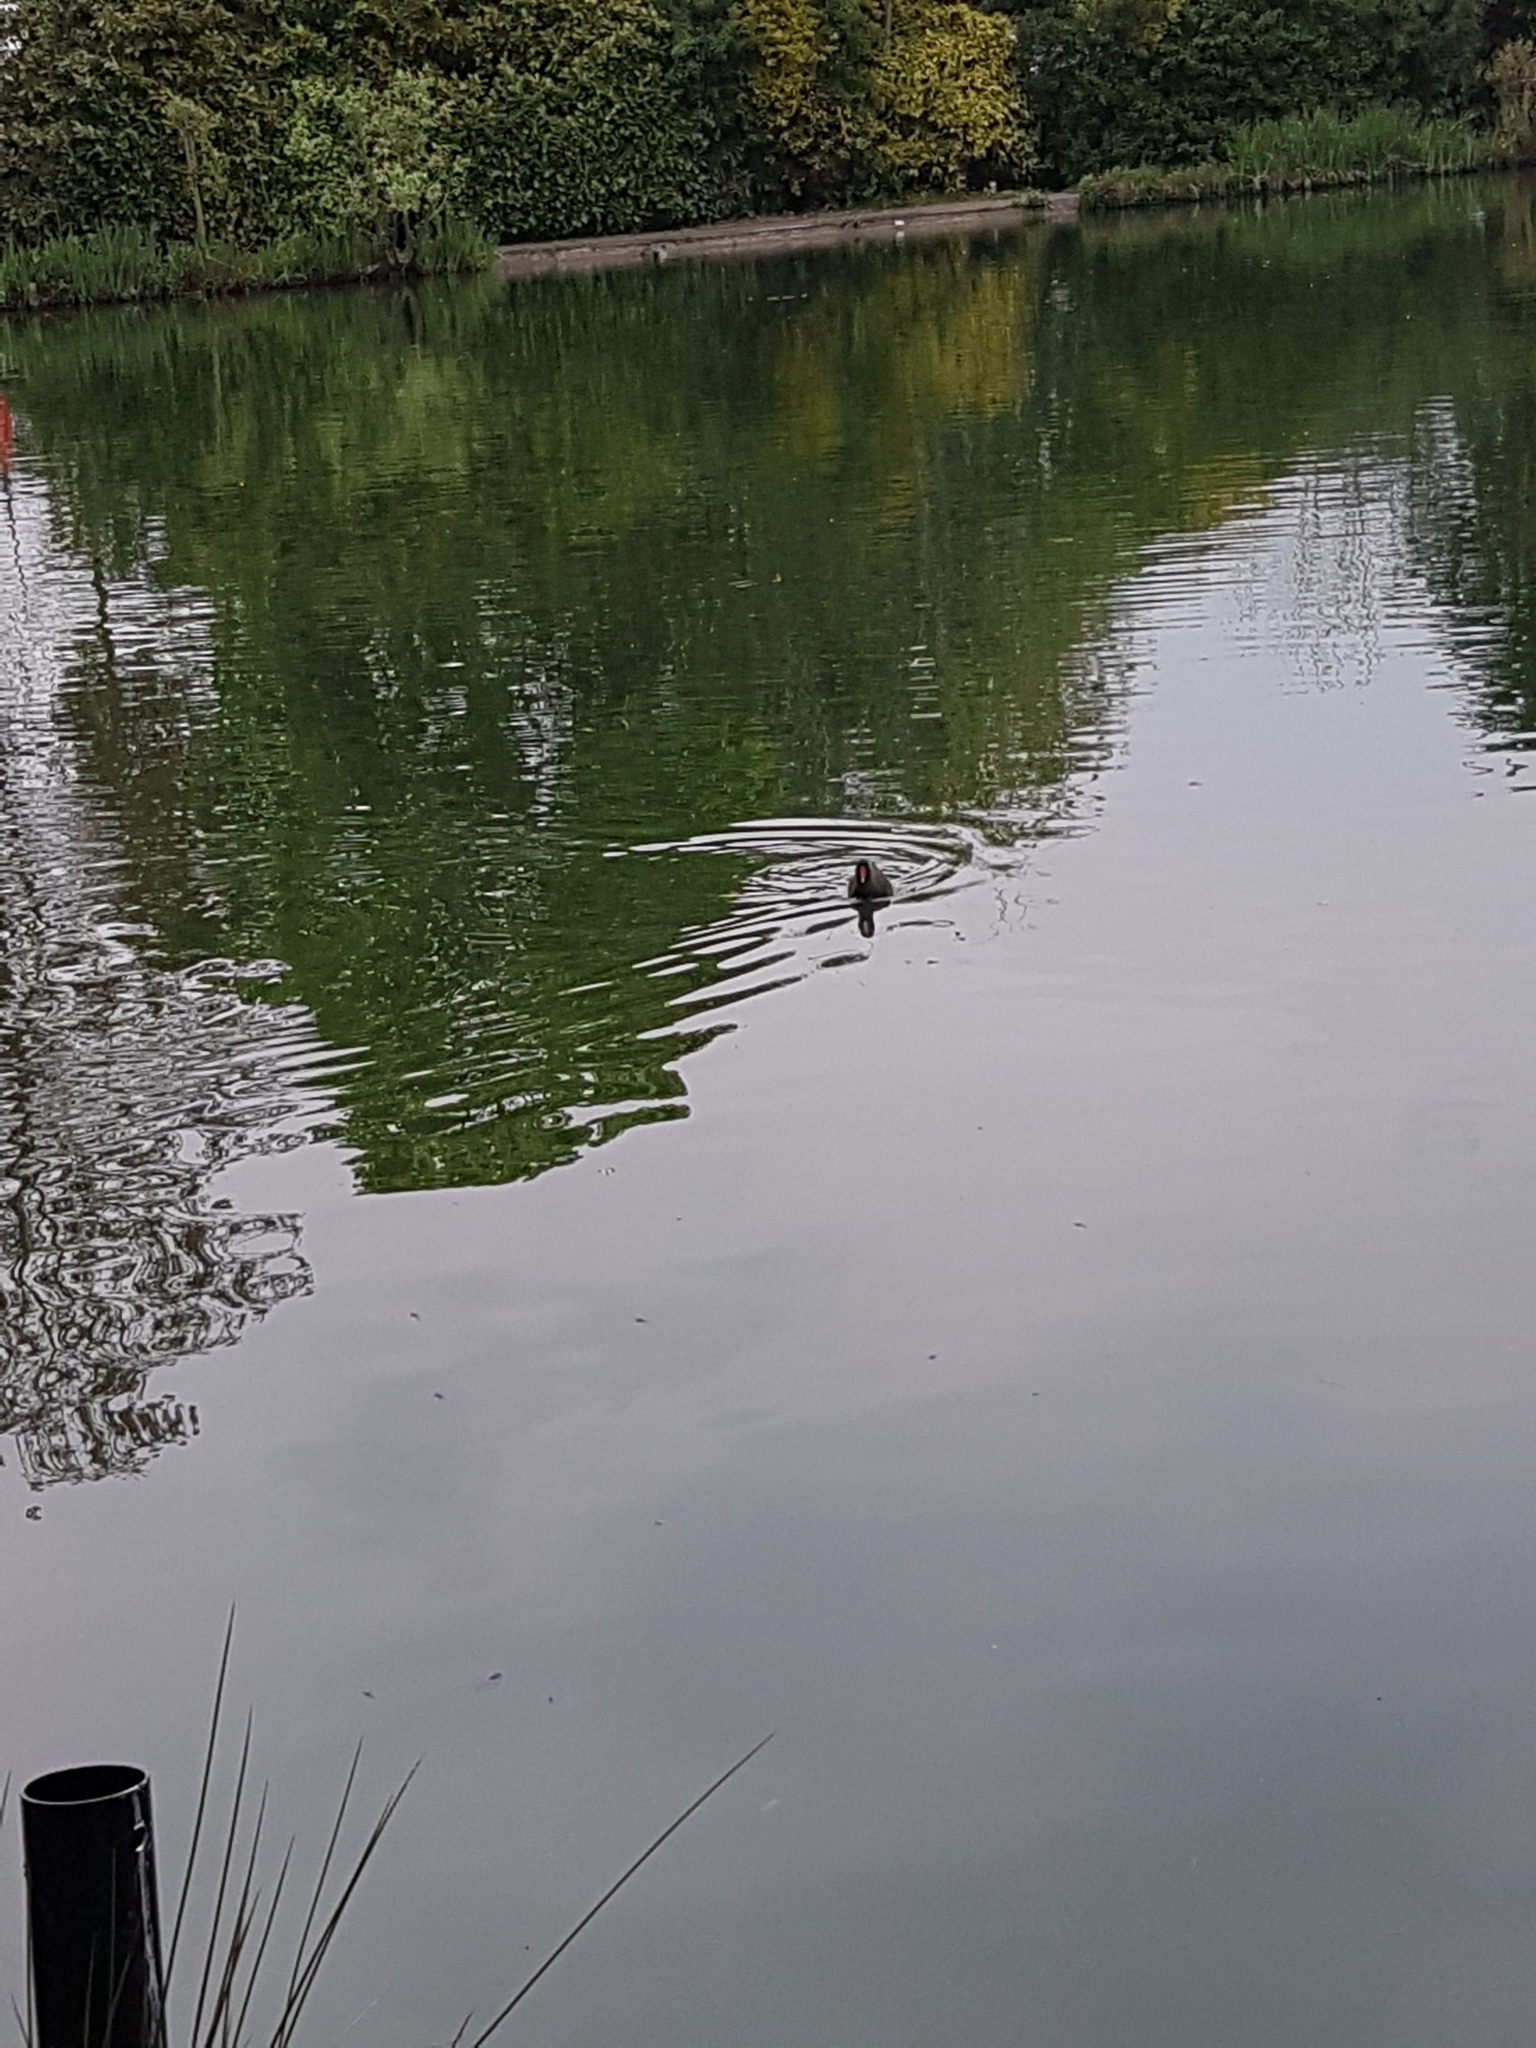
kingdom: Animalia
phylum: Chordata
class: Aves
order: Gruiformes
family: Rallidae
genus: Gallinula
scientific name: Gallinula chloropus
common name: Common moorhen
